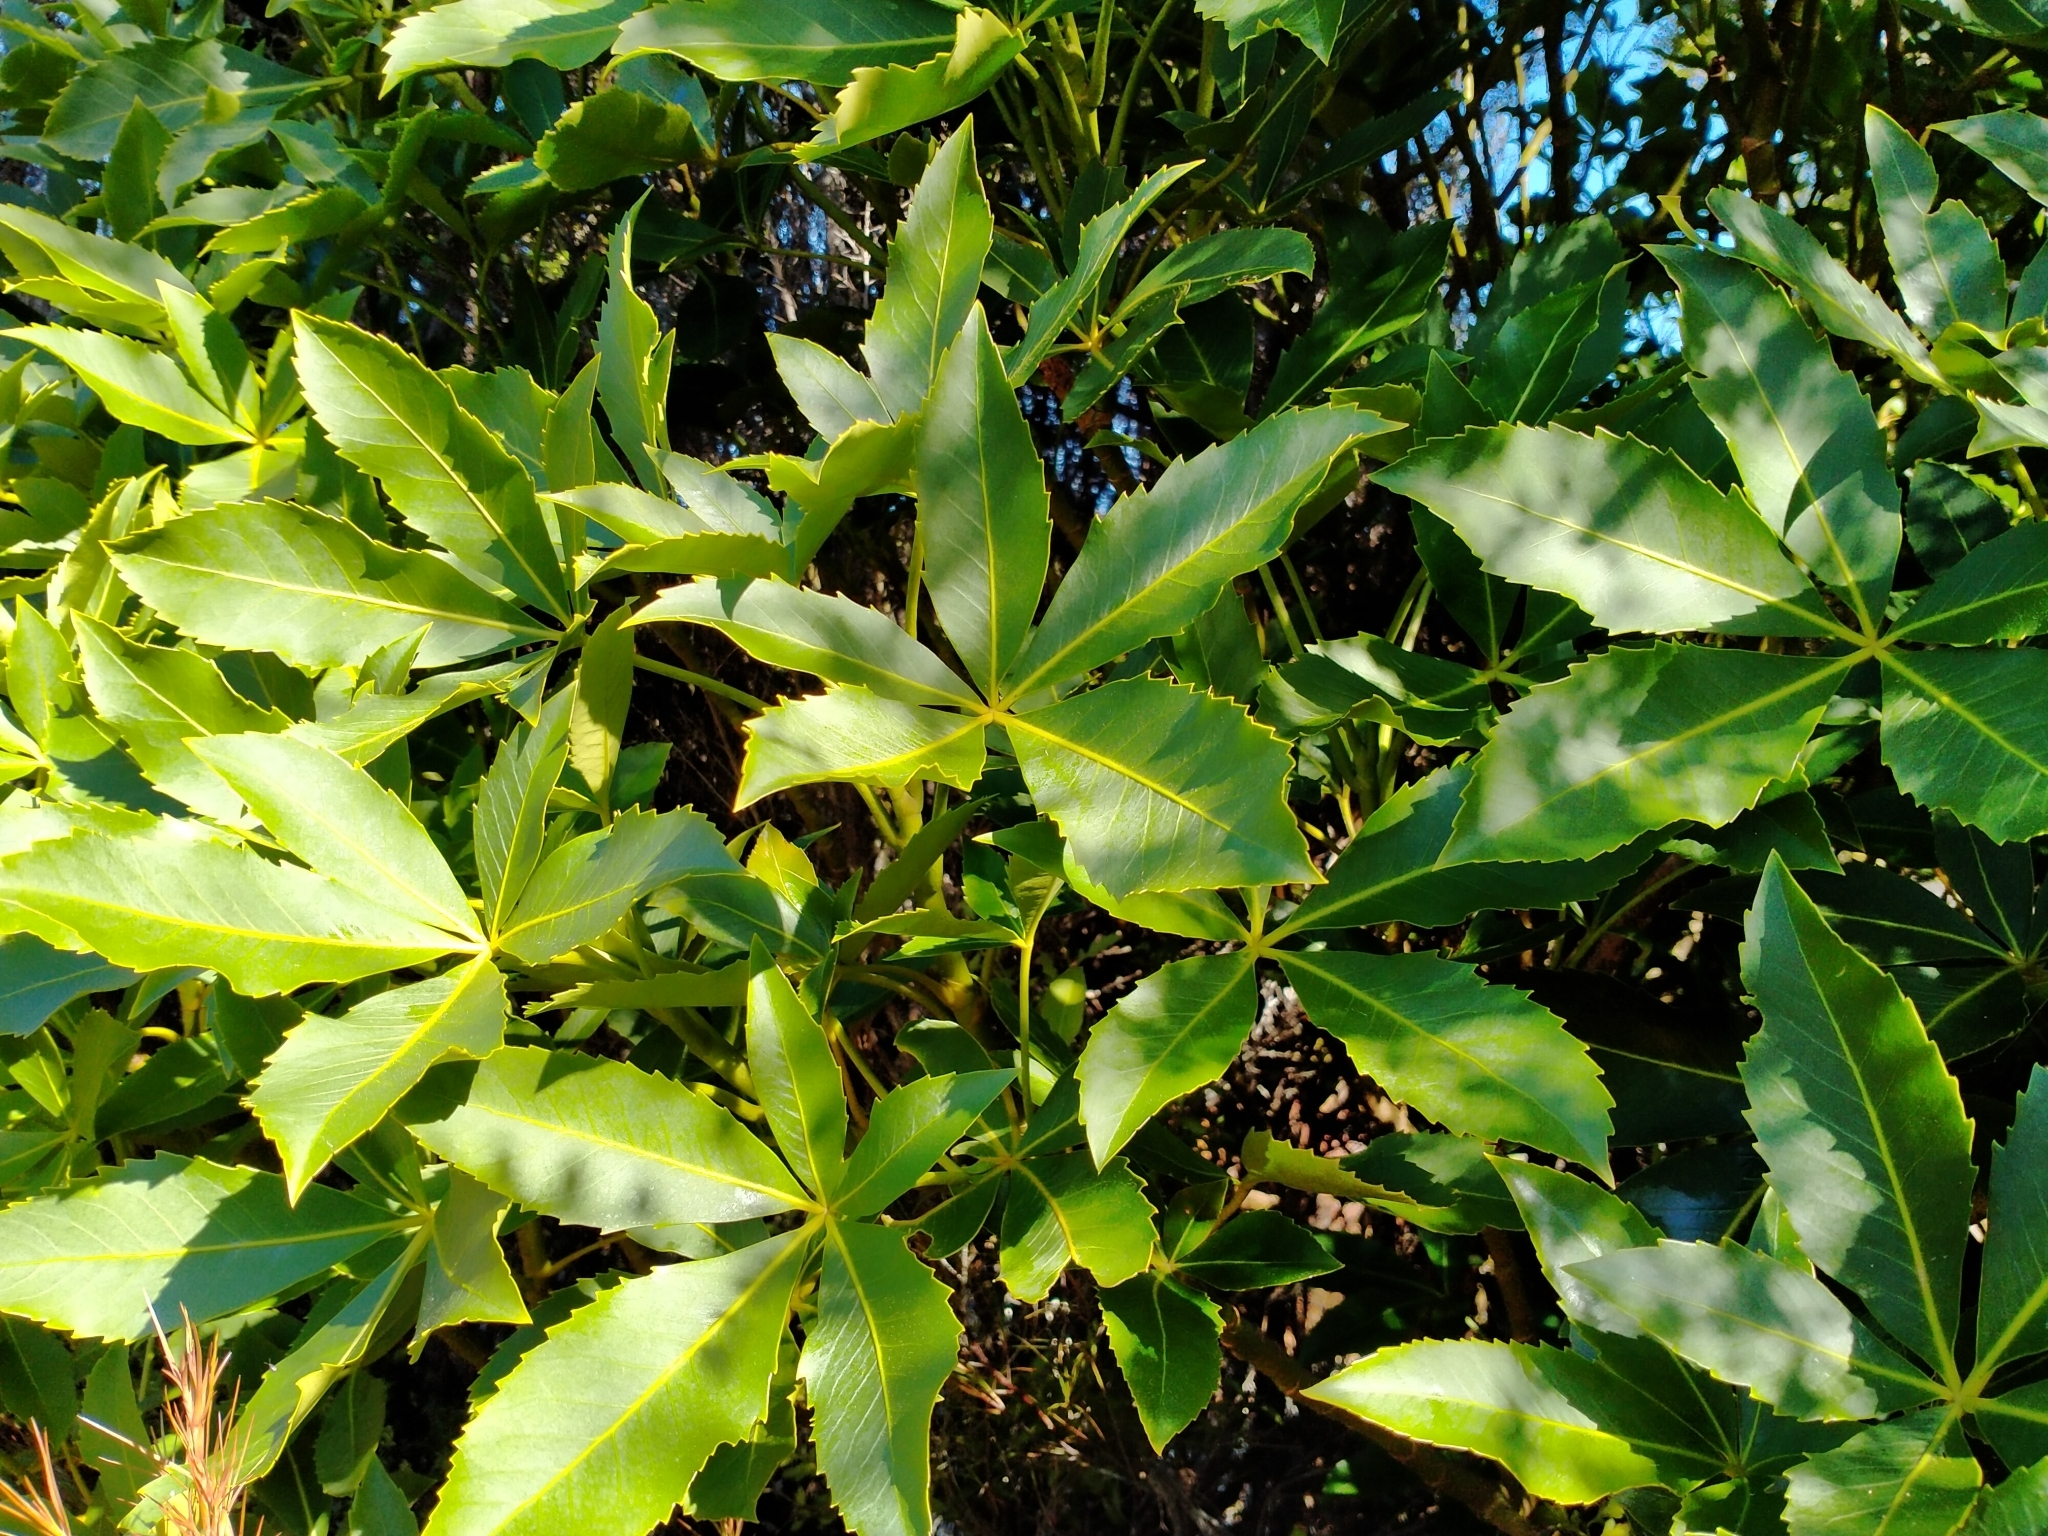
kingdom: Plantae
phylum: Tracheophyta
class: Magnoliopsida
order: Apiales
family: Araliaceae
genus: Neopanax
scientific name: Neopanax colensoi
